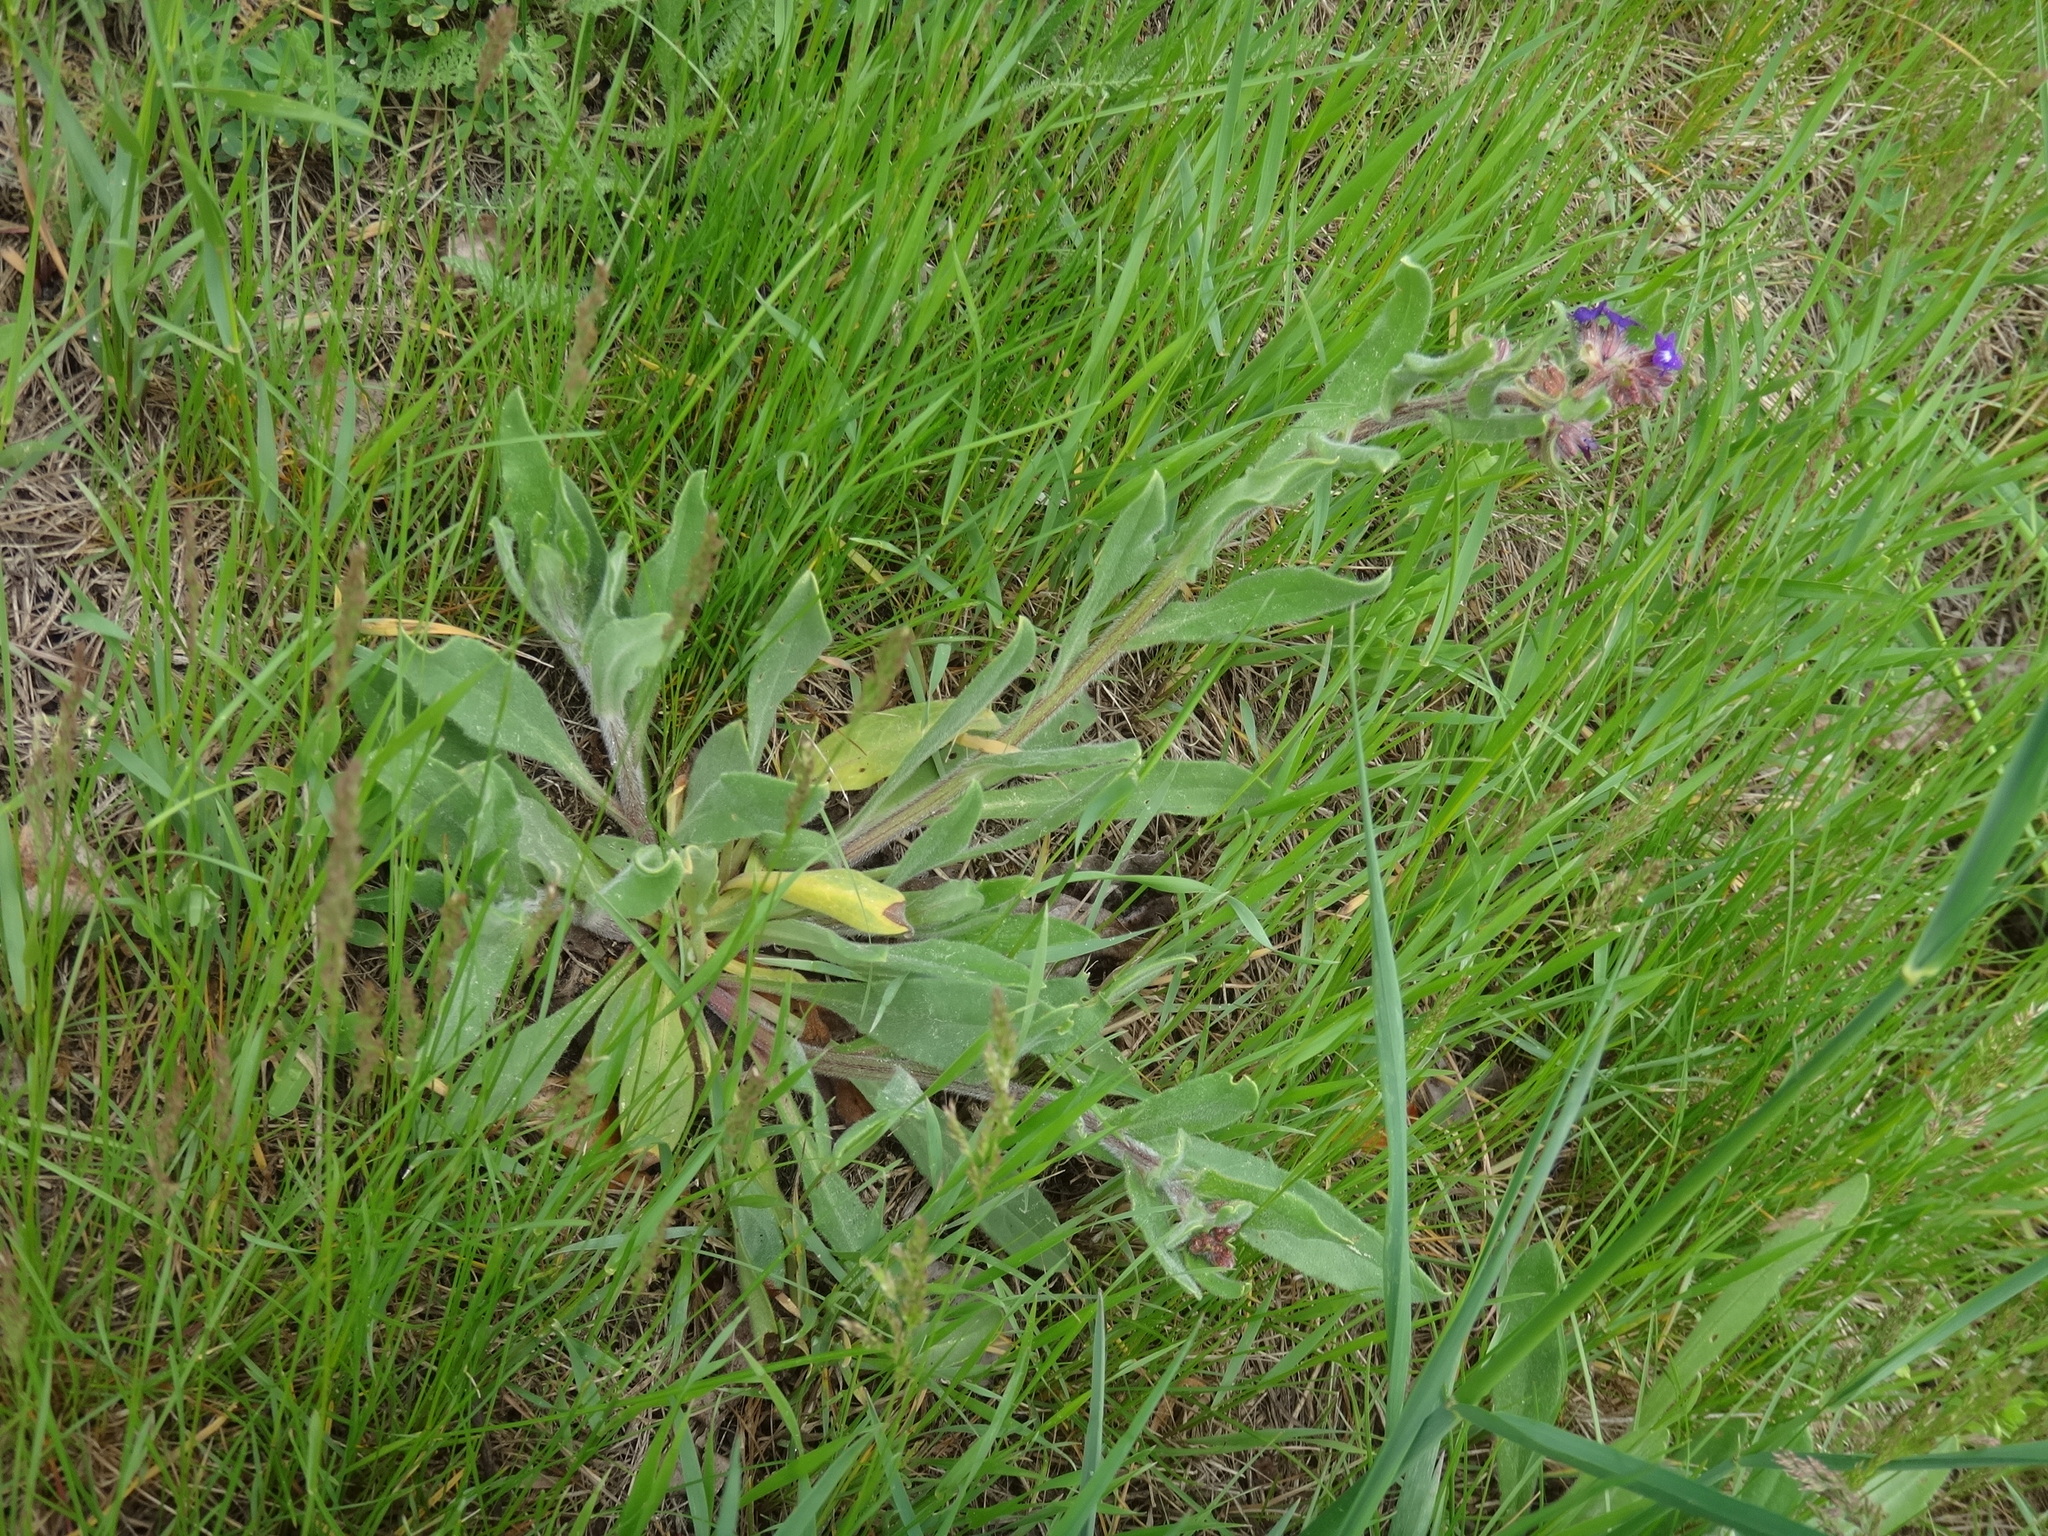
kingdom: Plantae
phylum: Tracheophyta
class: Magnoliopsida
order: Boraginales
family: Boraginaceae
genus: Anchusa
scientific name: Anchusa officinalis
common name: Alkanet
